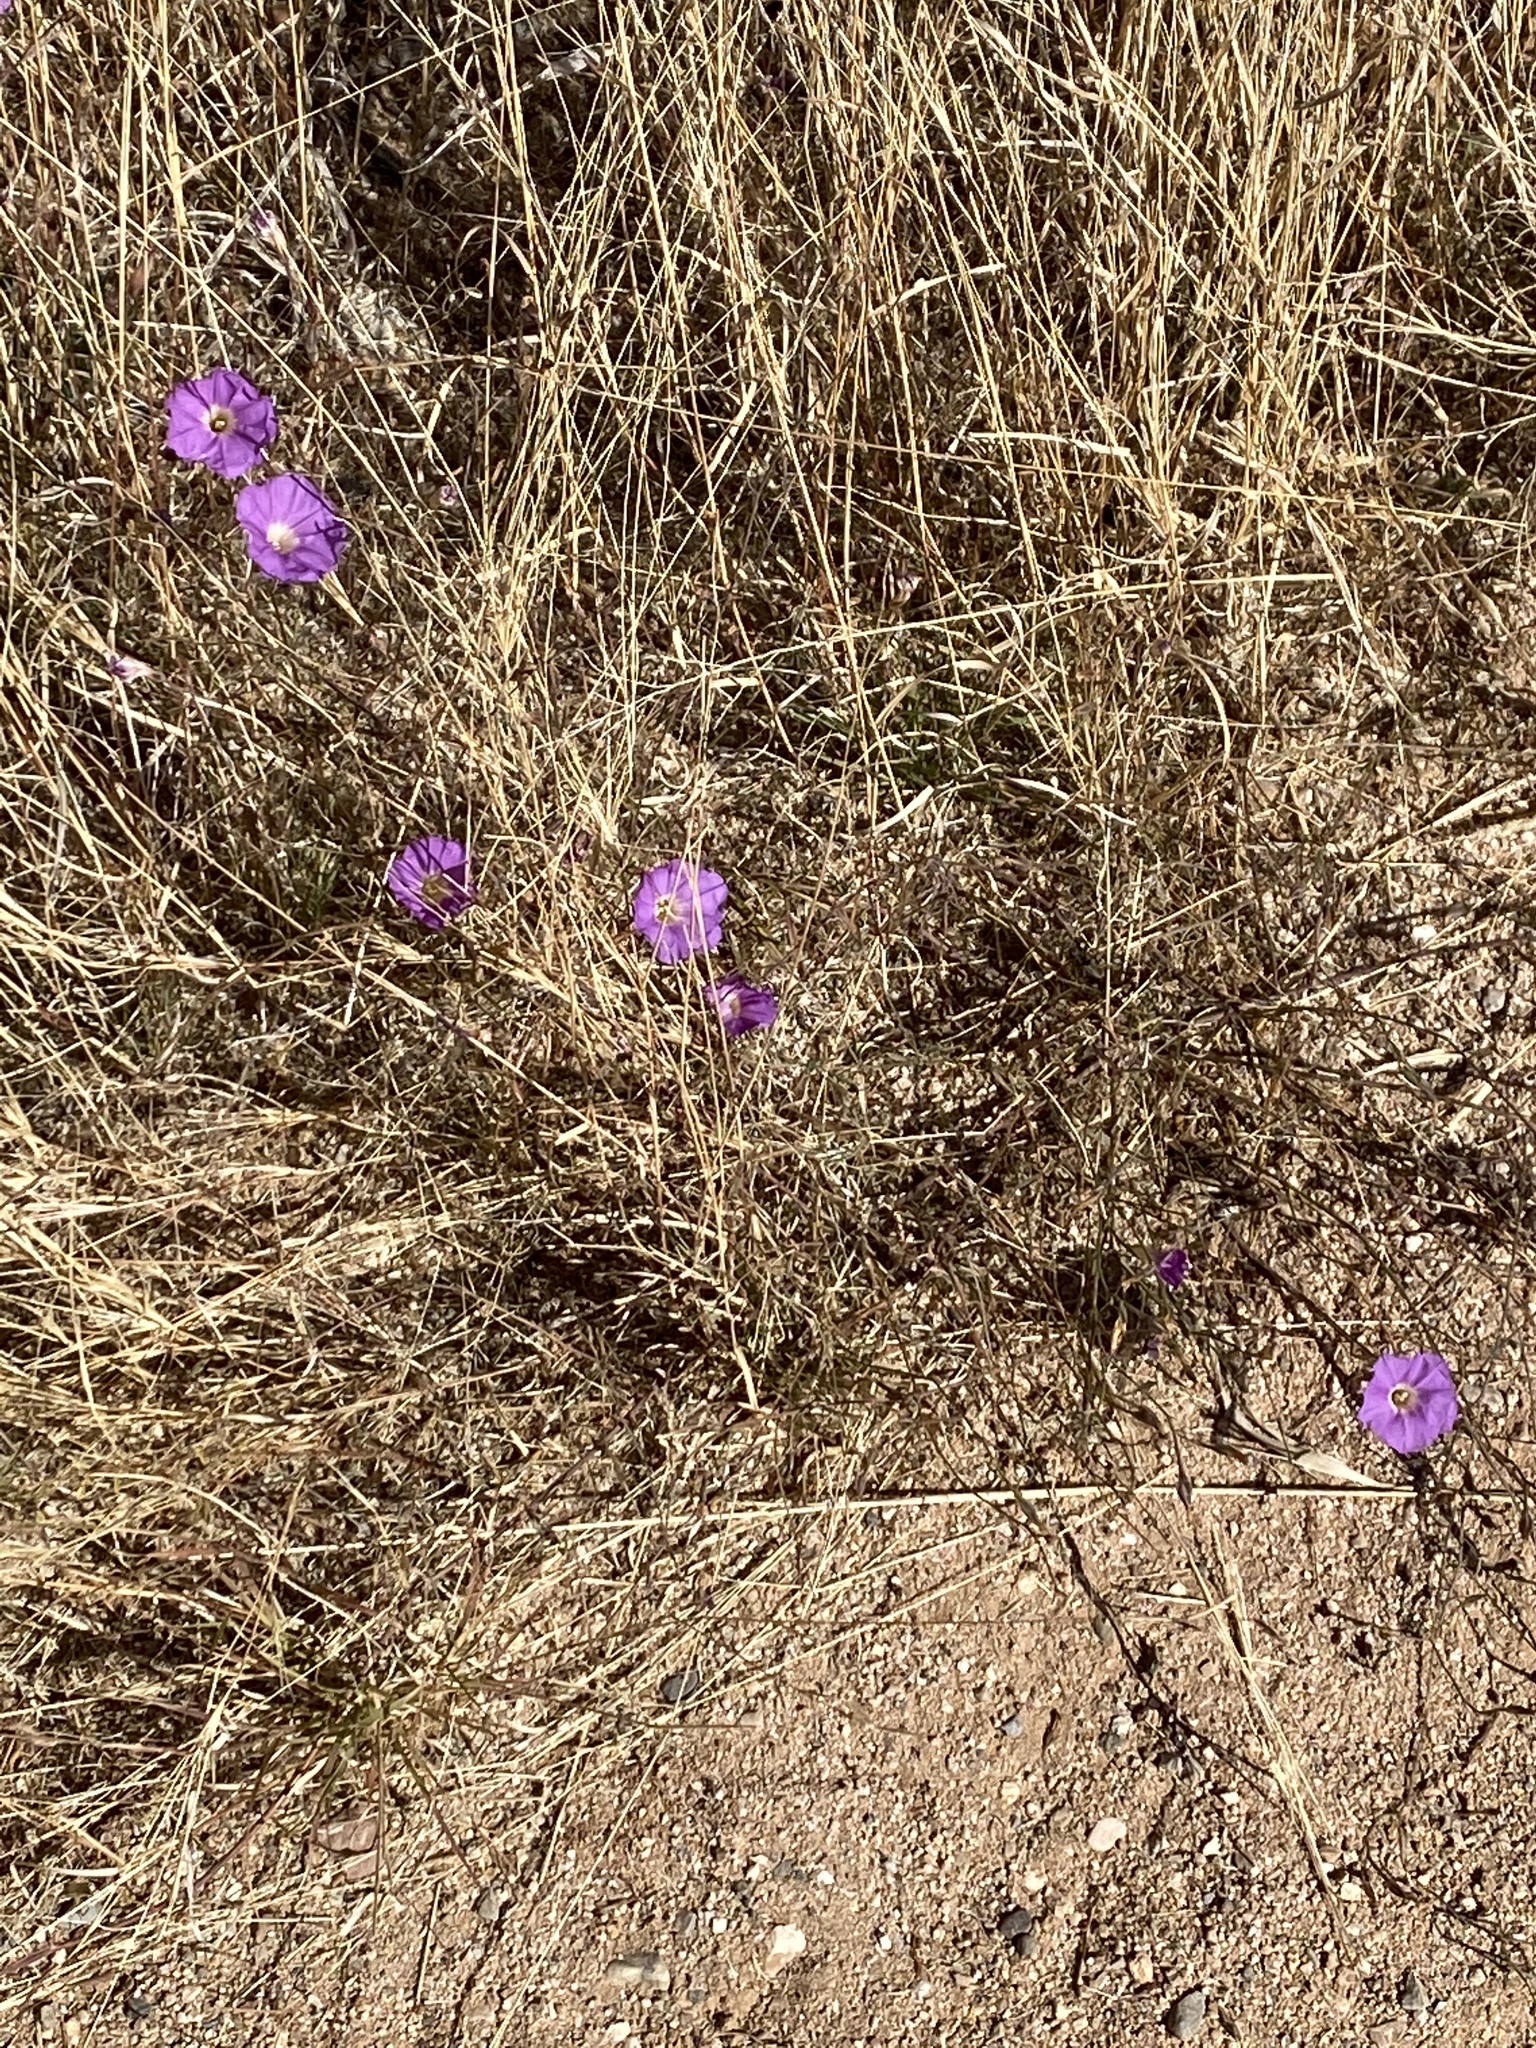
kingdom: Plantae
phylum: Tracheophyta
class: Magnoliopsida
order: Solanales
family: Convolvulaceae
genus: Ipomoea
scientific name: Ipomoea ternifolia
